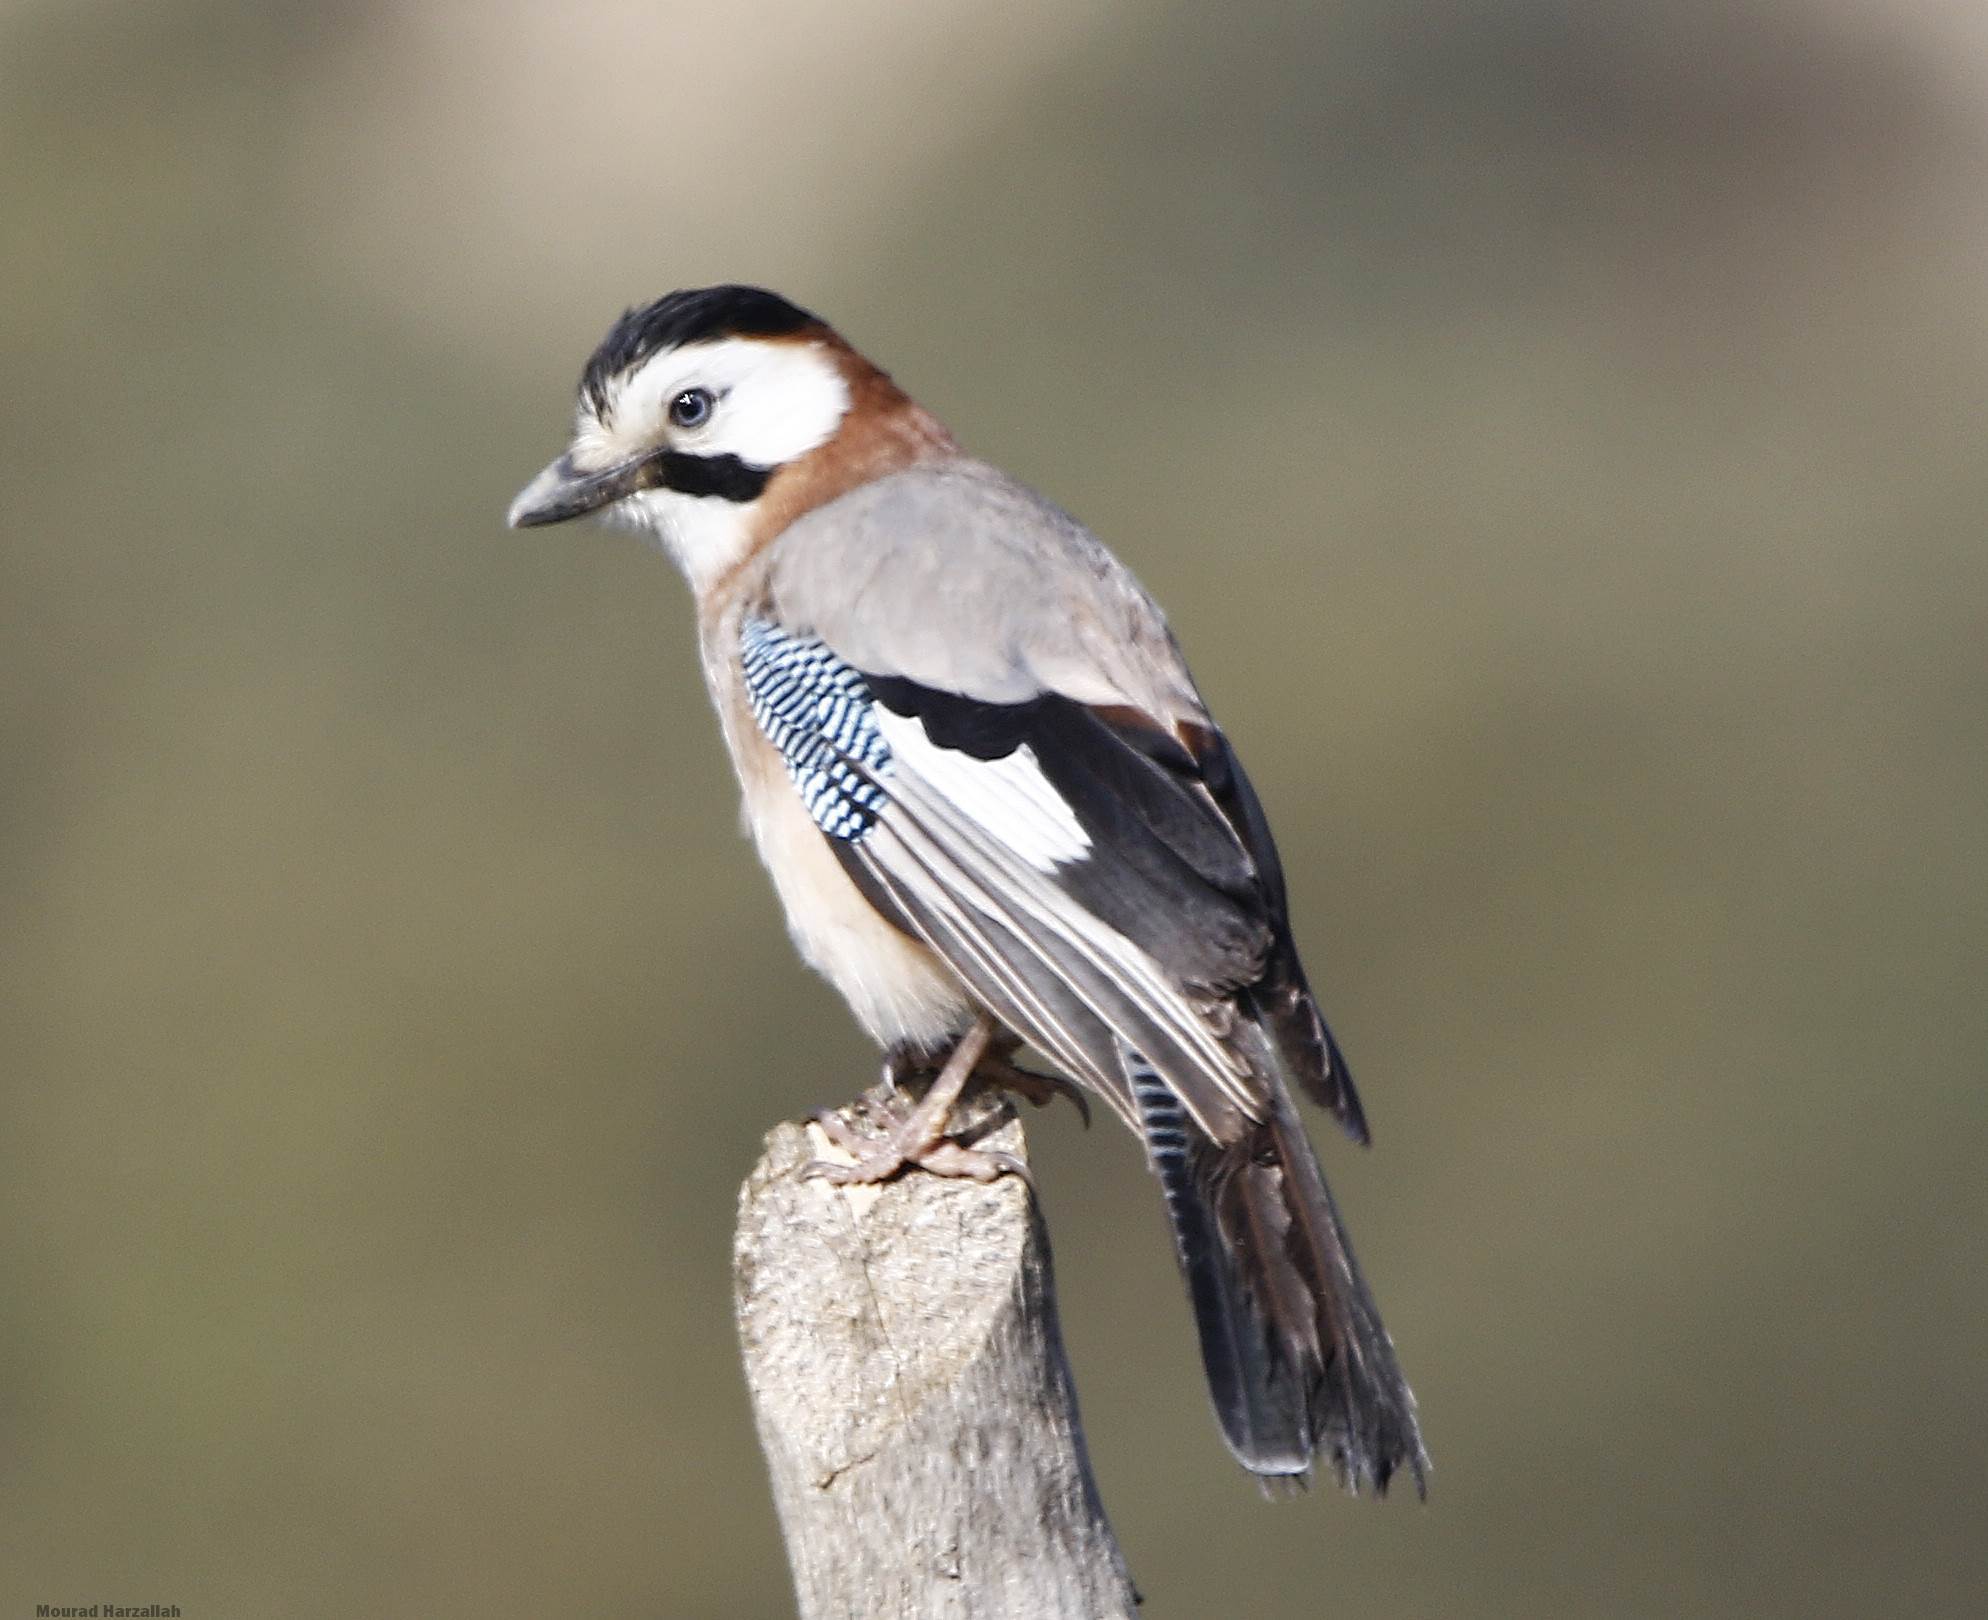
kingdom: Animalia
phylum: Chordata
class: Aves
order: Passeriformes
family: Corvidae
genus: Garrulus
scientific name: Garrulus glandarius
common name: Eurasian jay
